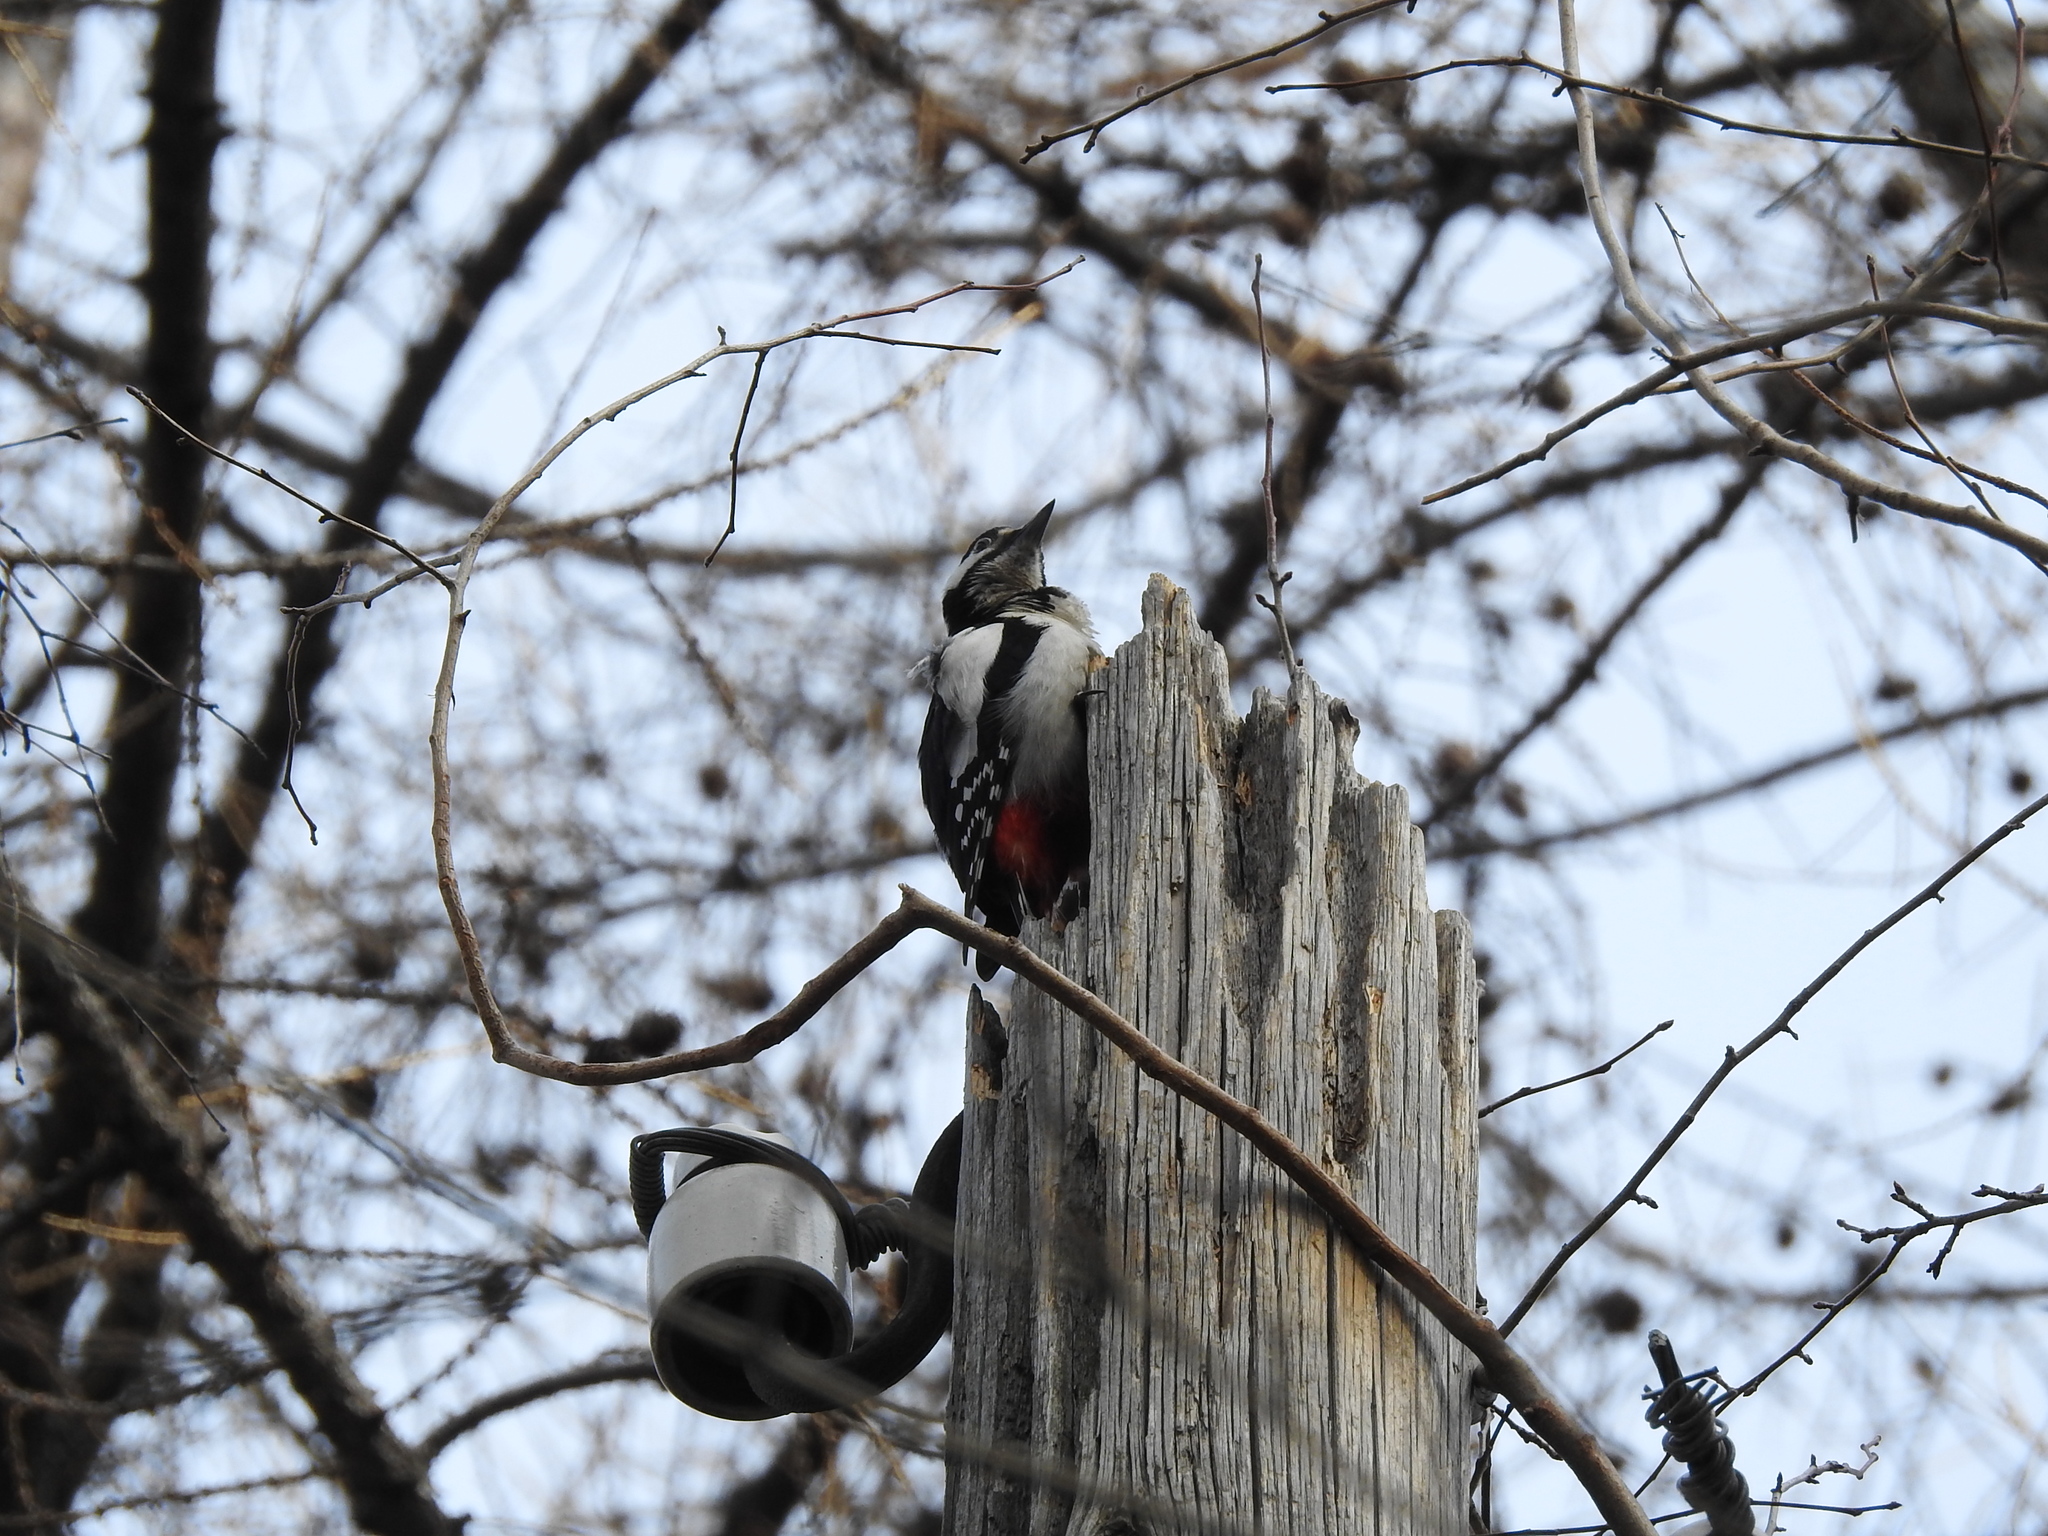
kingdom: Animalia
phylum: Chordata
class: Aves
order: Piciformes
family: Picidae
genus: Dendrocopos
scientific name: Dendrocopos major
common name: Great spotted woodpecker
